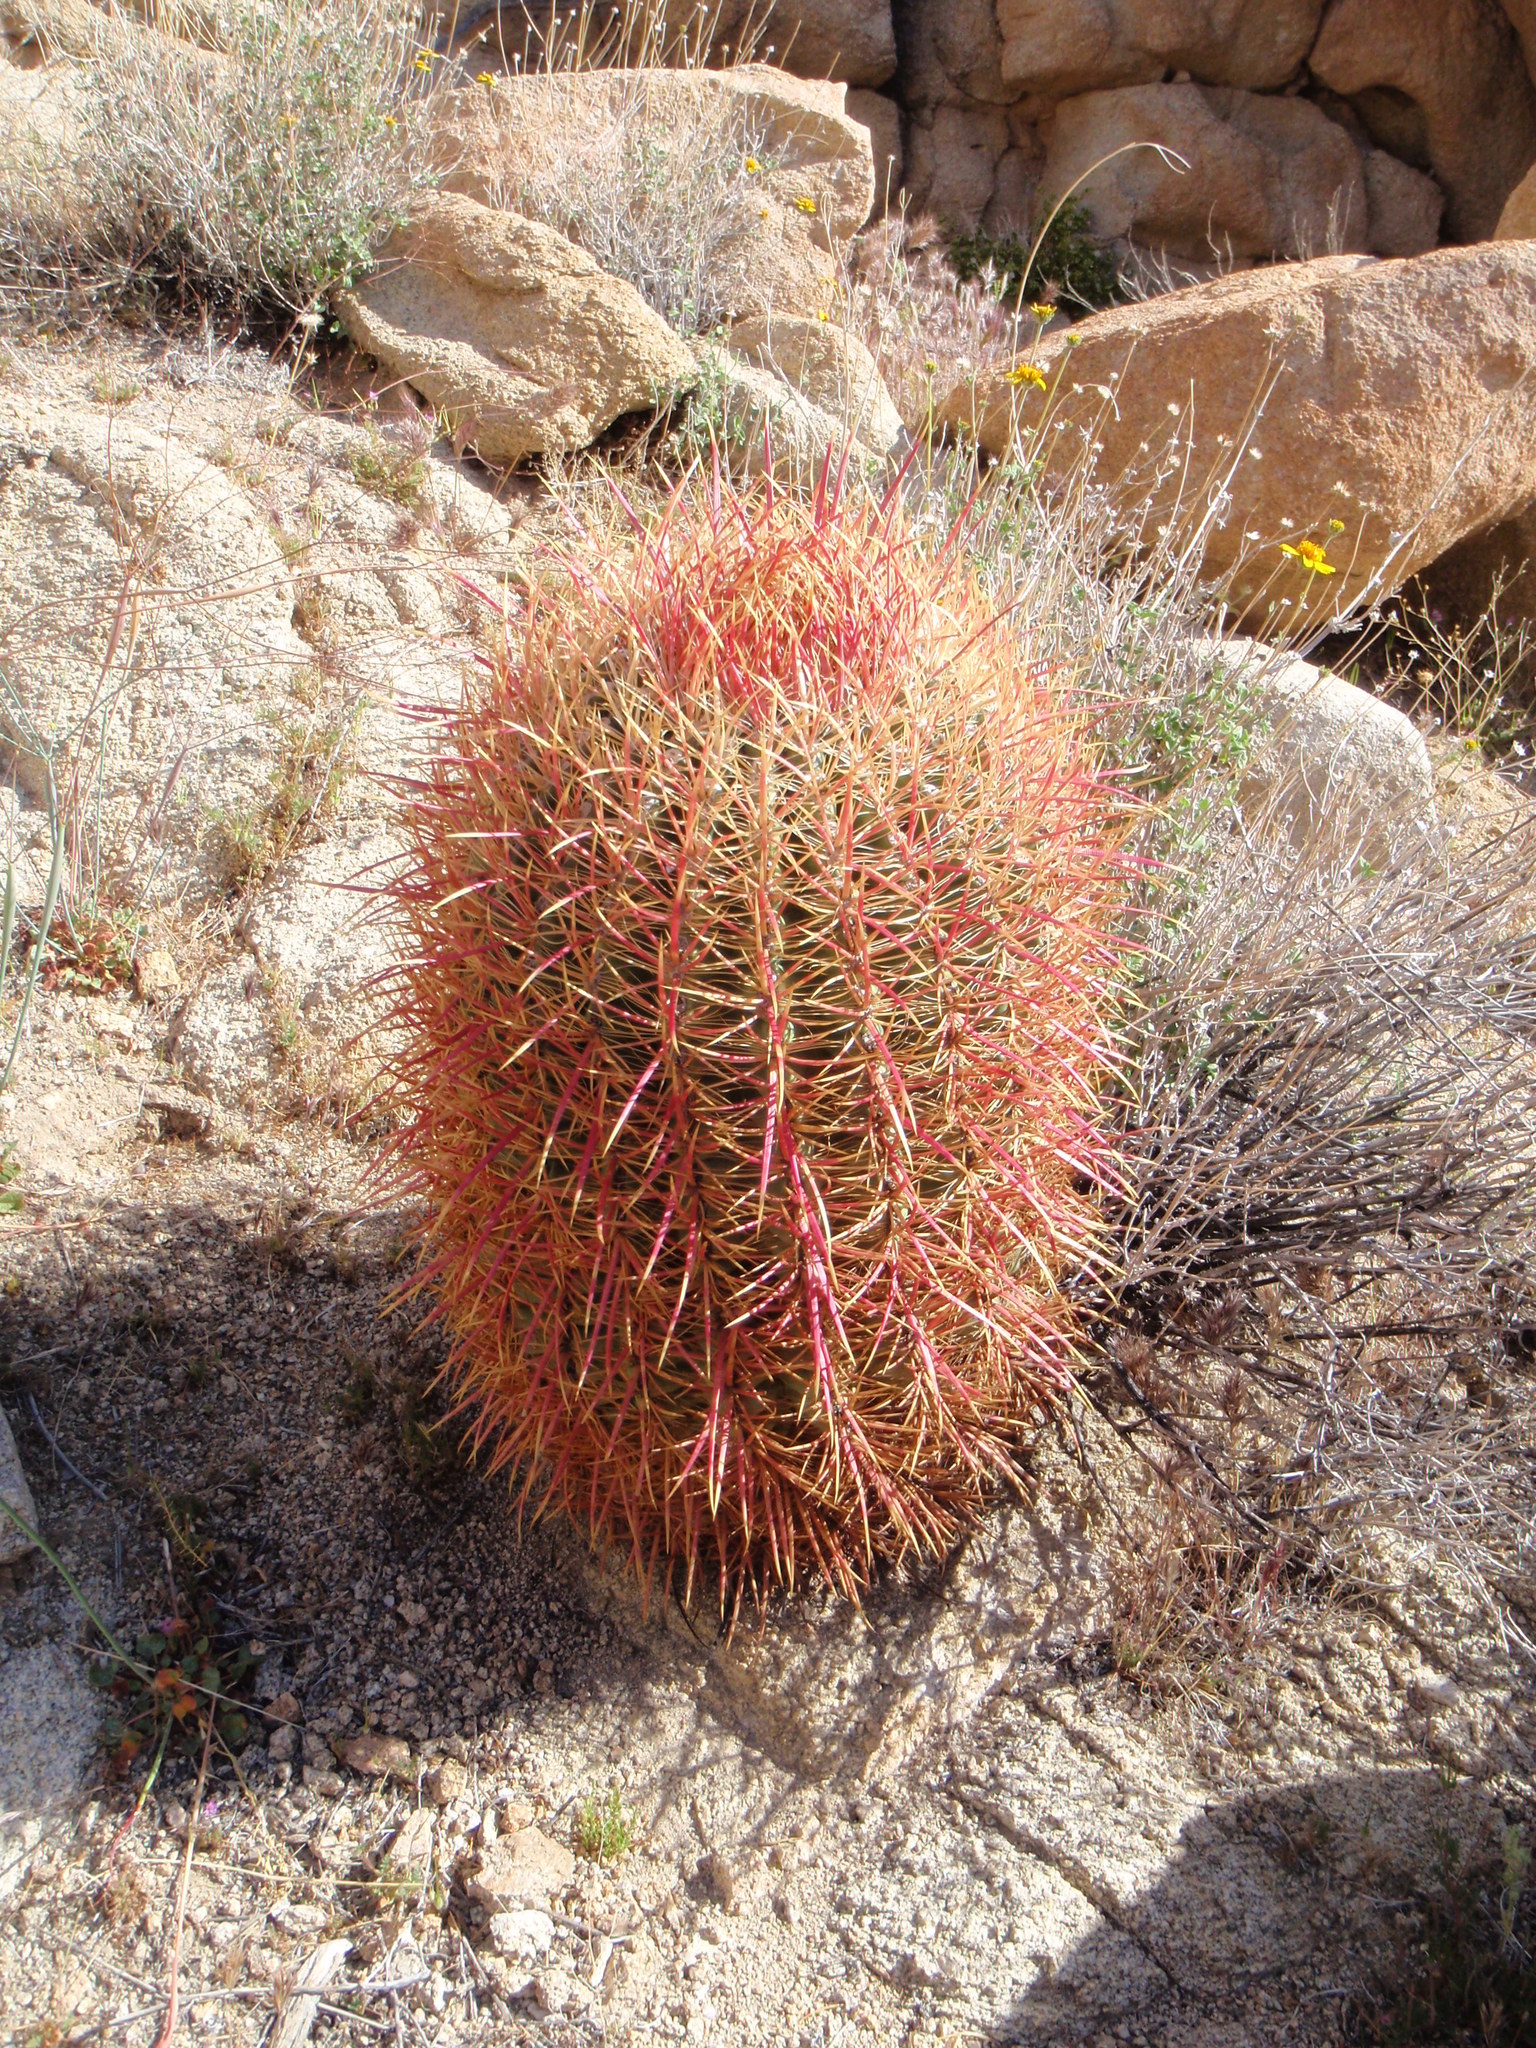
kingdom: Plantae
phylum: Tracheophyta
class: Magnoliopsida
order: Caryophyllales
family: Cactaceae
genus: Ferocactus
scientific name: Ferocactus cylindraceus
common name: California barrel cactus
